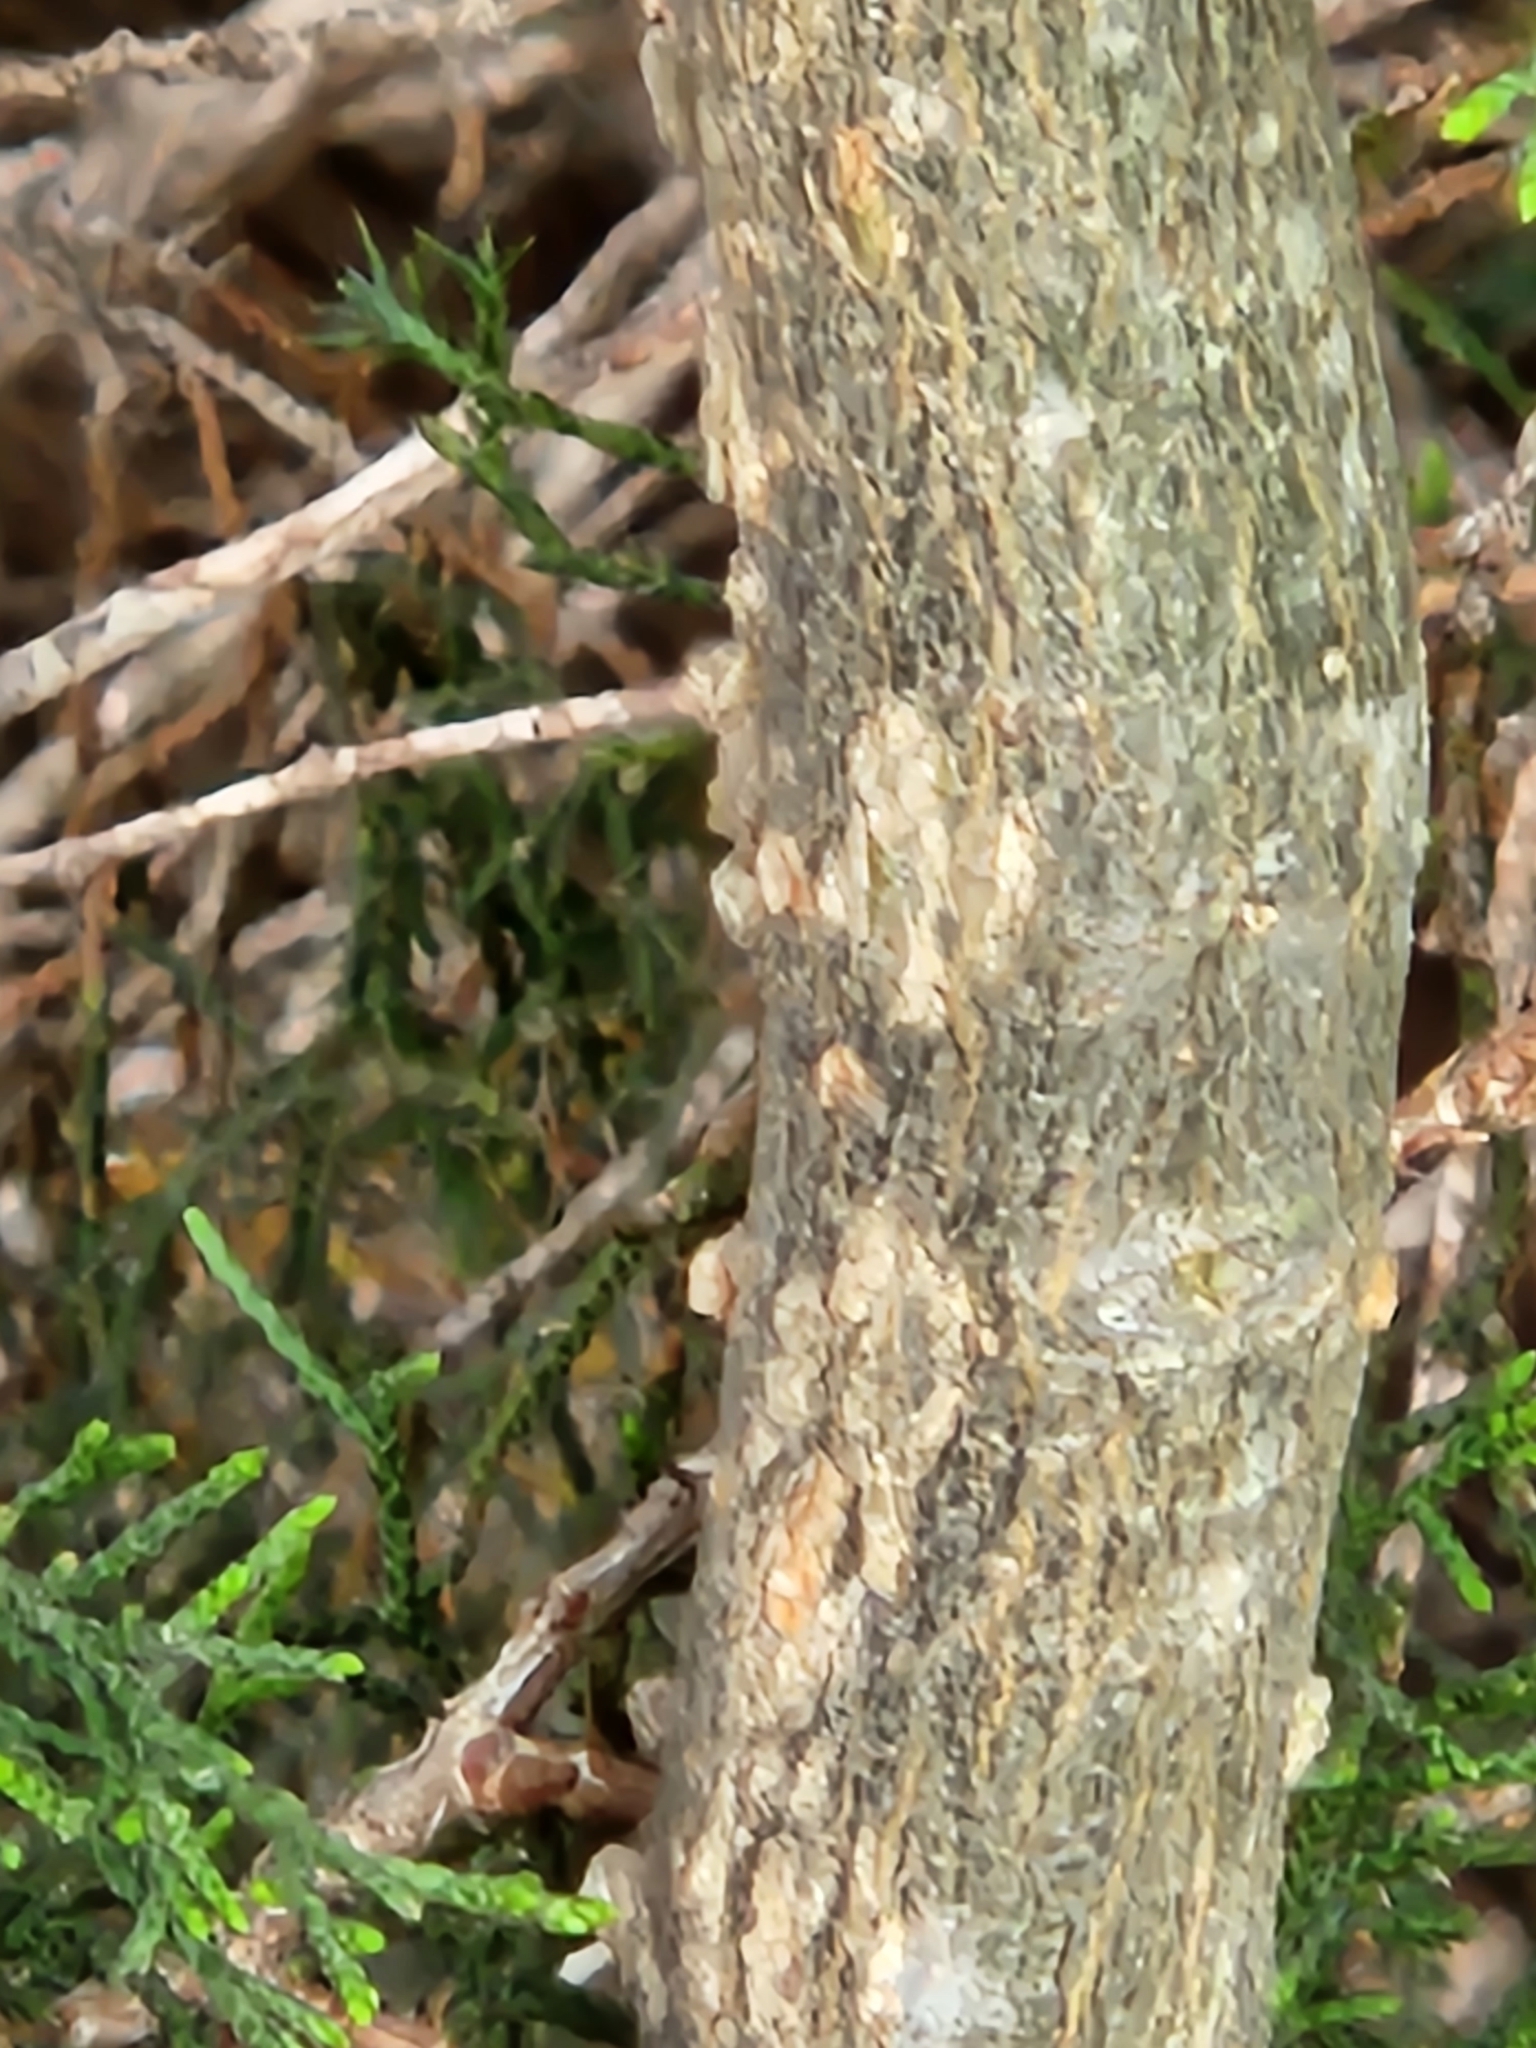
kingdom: Plantae
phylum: Tracheophyta
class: Magnoliopsida
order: Rosales
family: Cannabaceae
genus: Celtis
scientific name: Celtis laevigata
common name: Sugarberry
